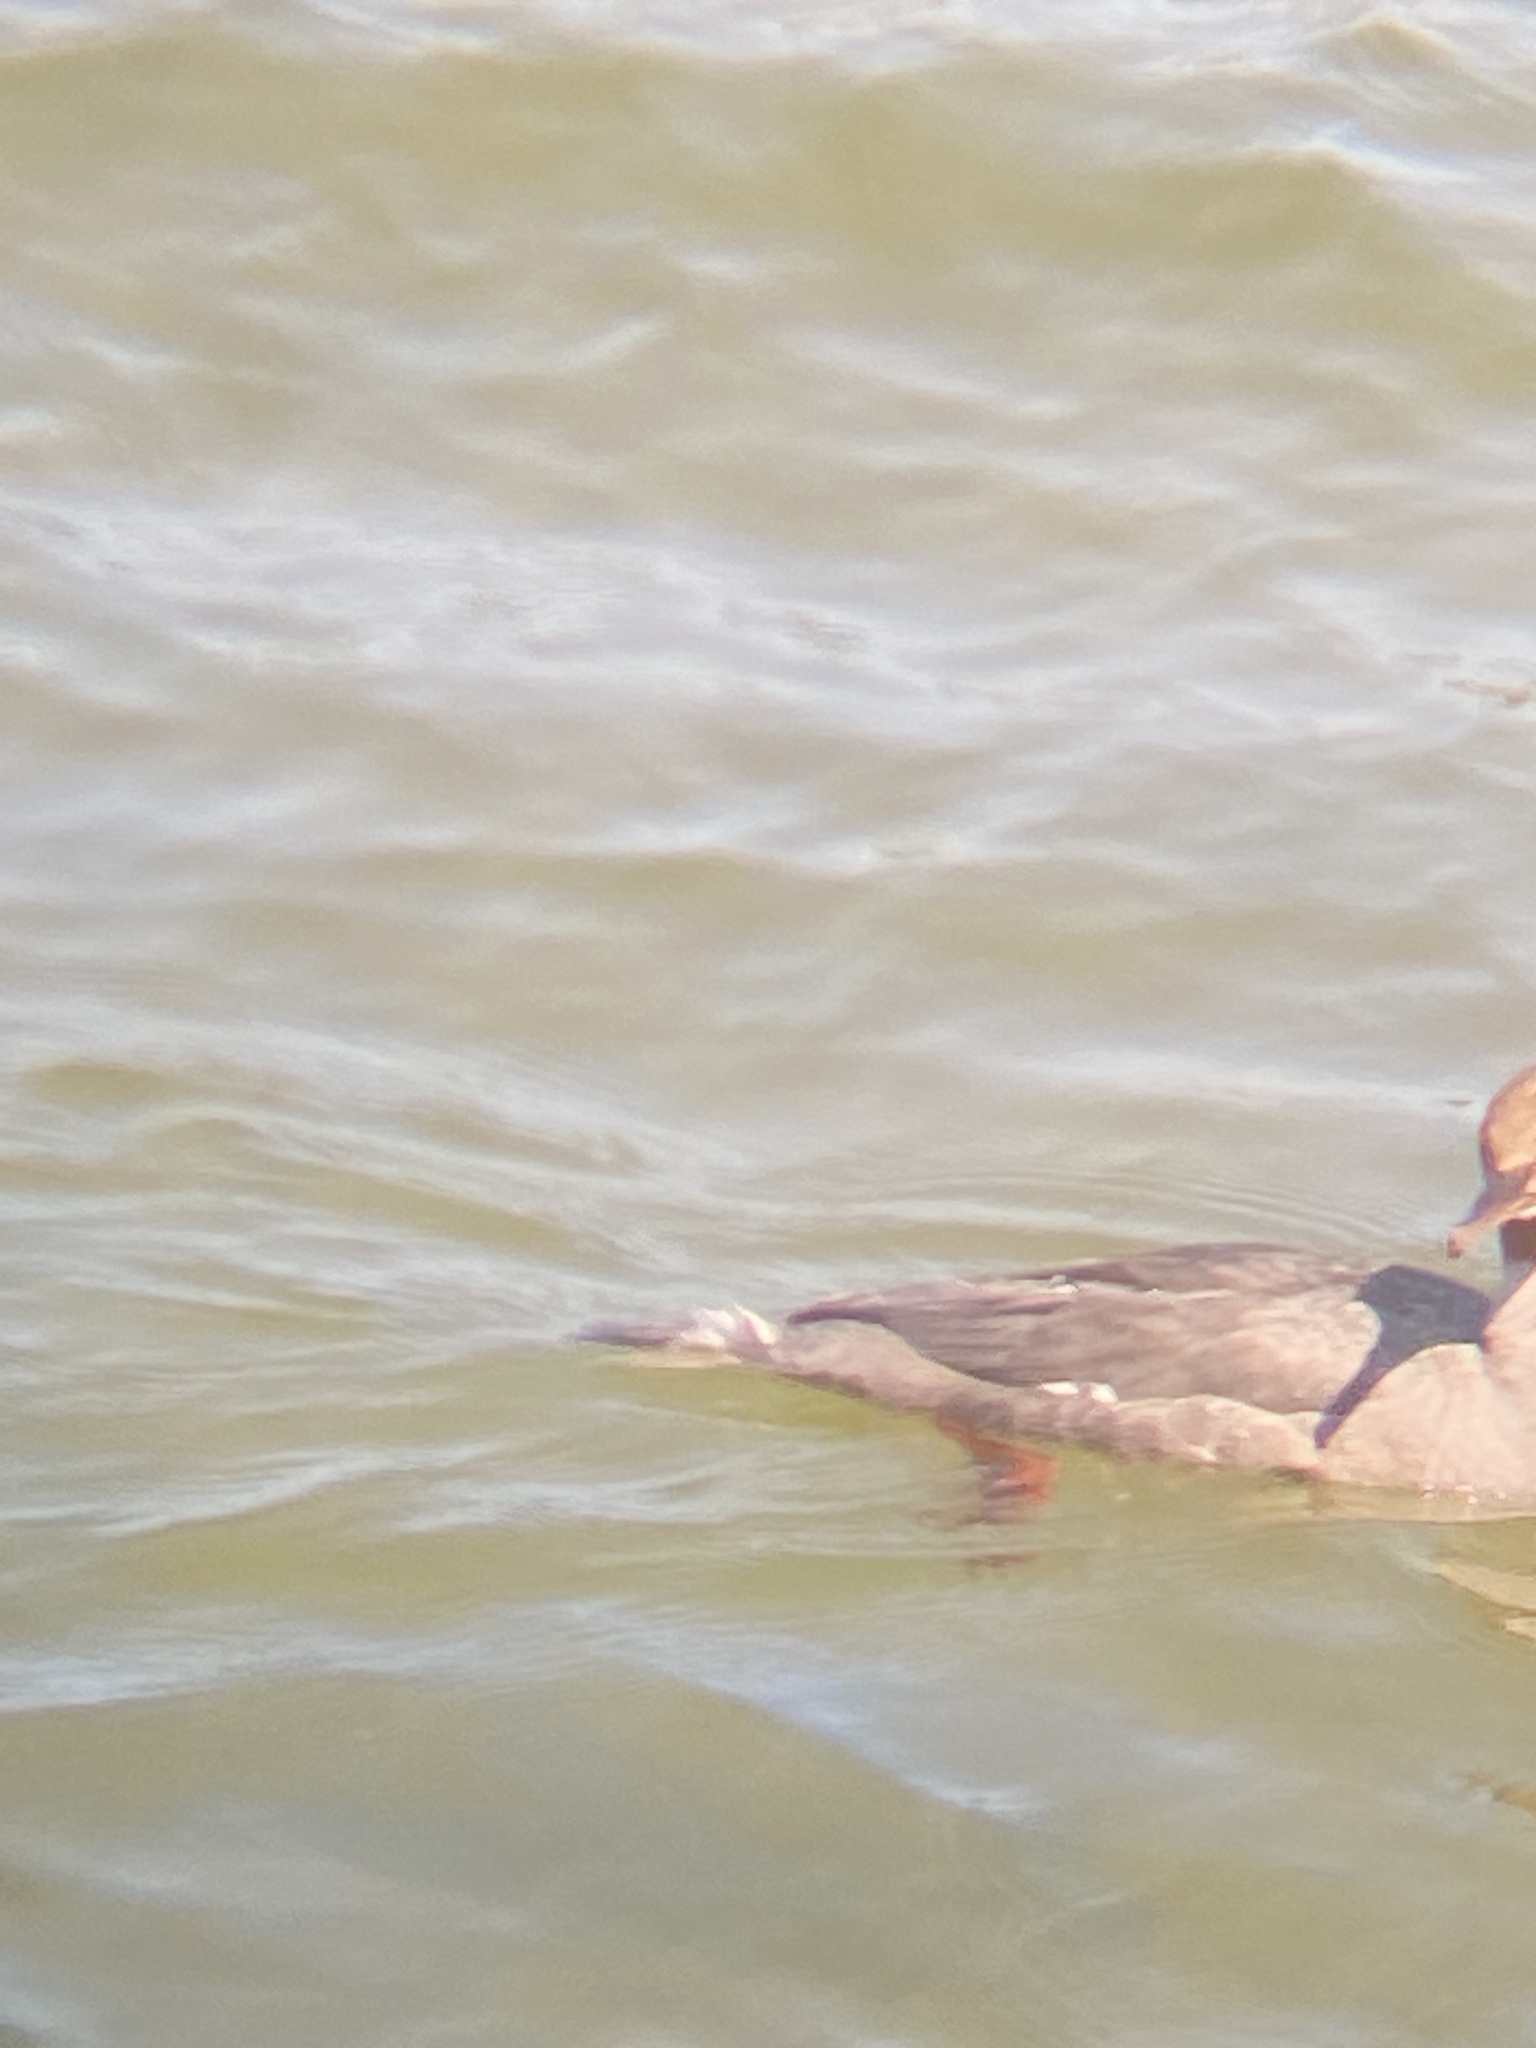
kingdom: Animalia
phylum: Chordata
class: Aves
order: Anseriformes
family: Anatidae
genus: Mergus
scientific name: Mergus merganser
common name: Common merganser
